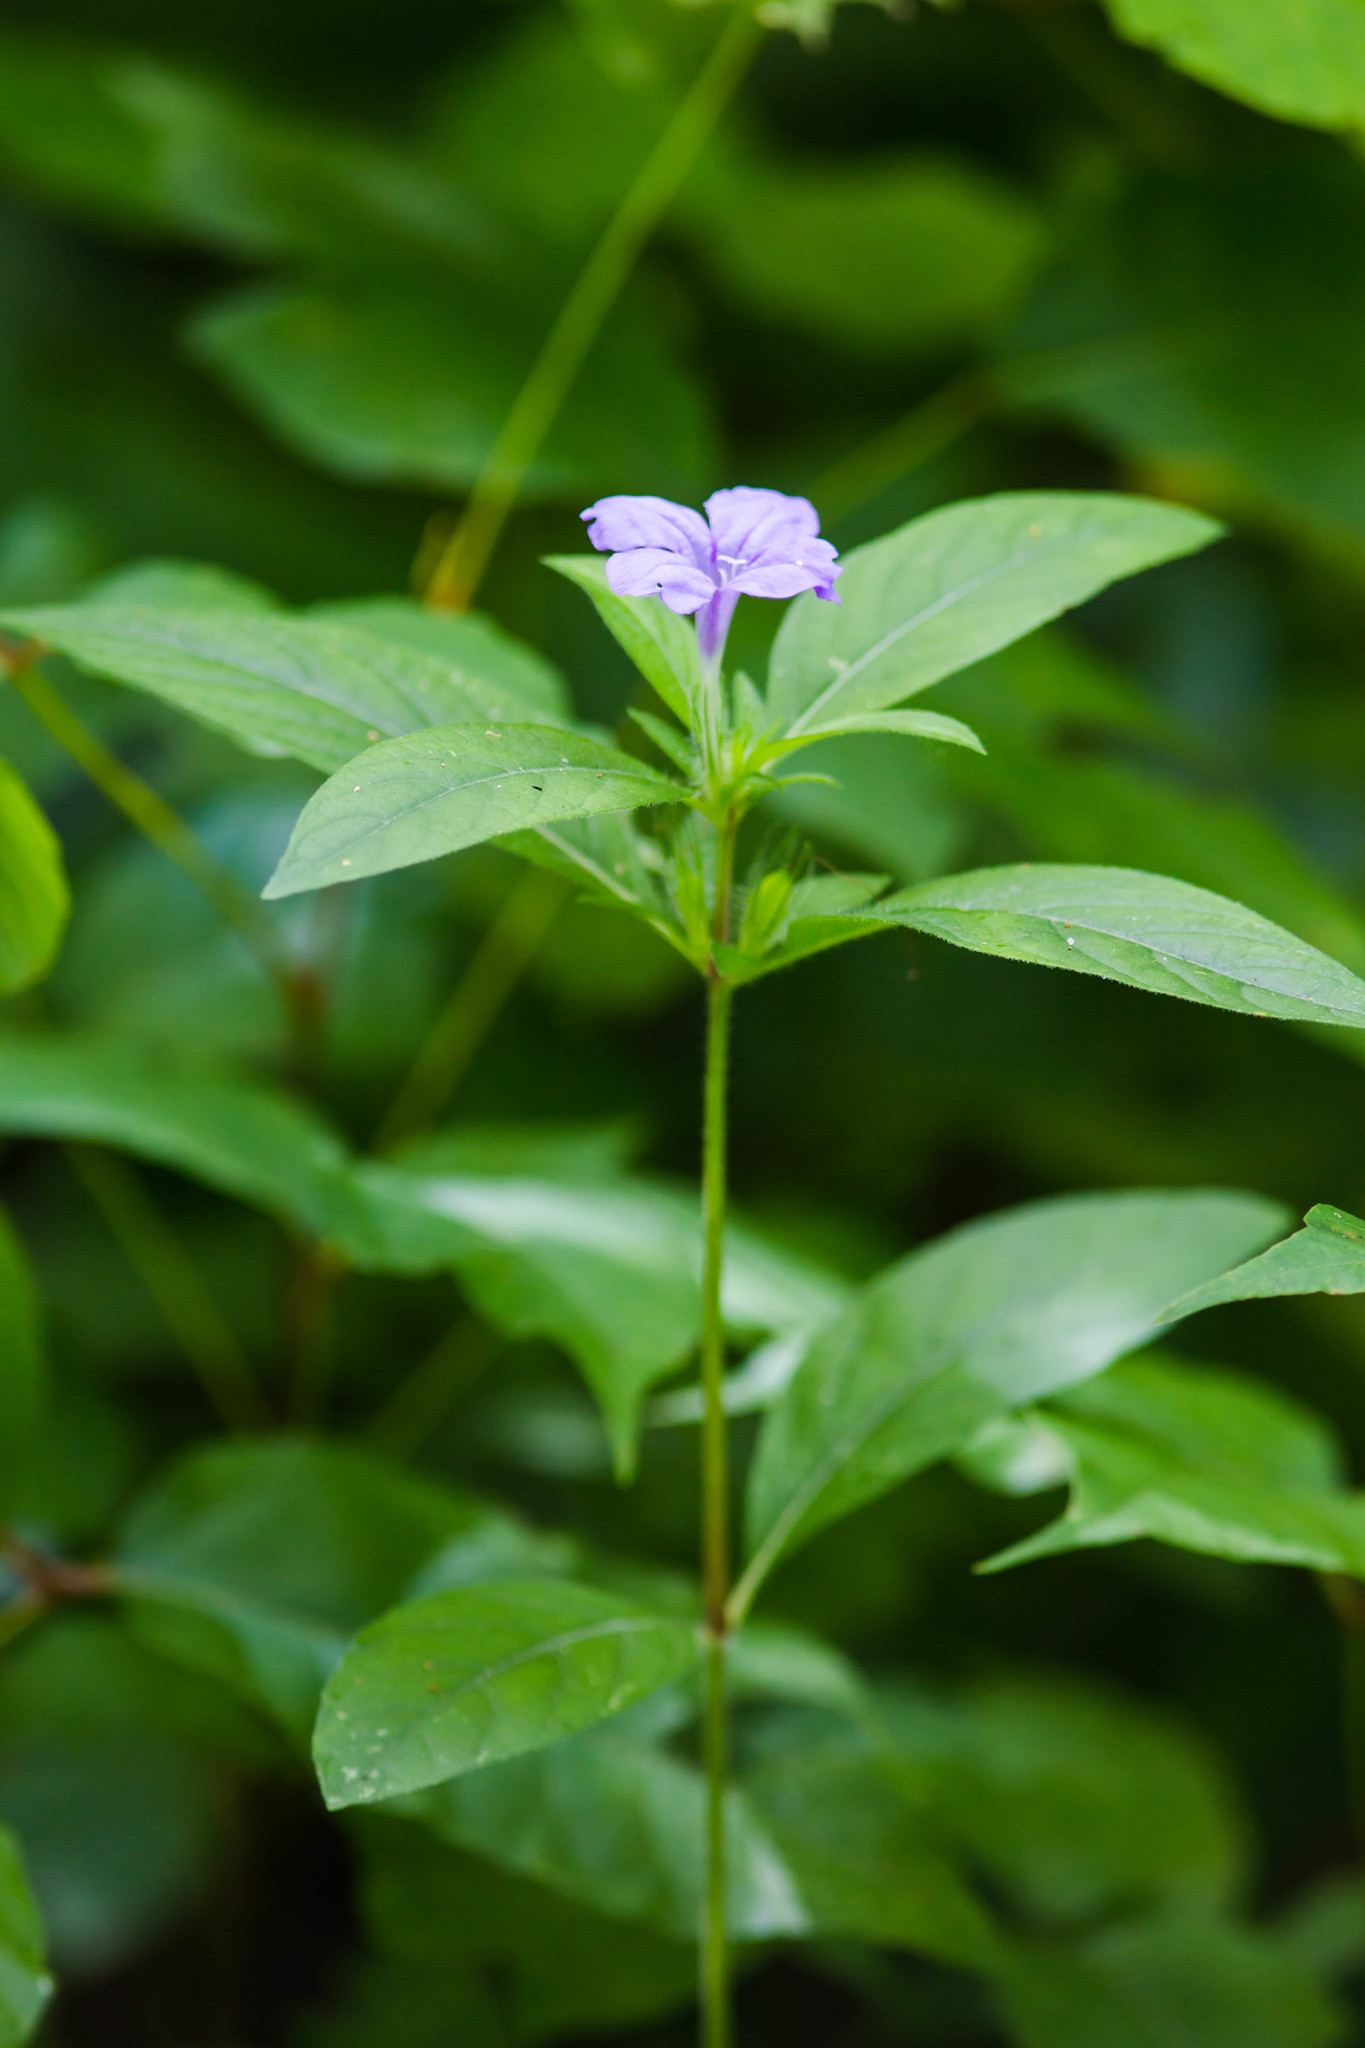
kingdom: Plantae
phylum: Tracheophyta
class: Magnoliopsida
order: Lamiales
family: Acanthaceae
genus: Ruellia
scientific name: Ruellia caroliniensis
